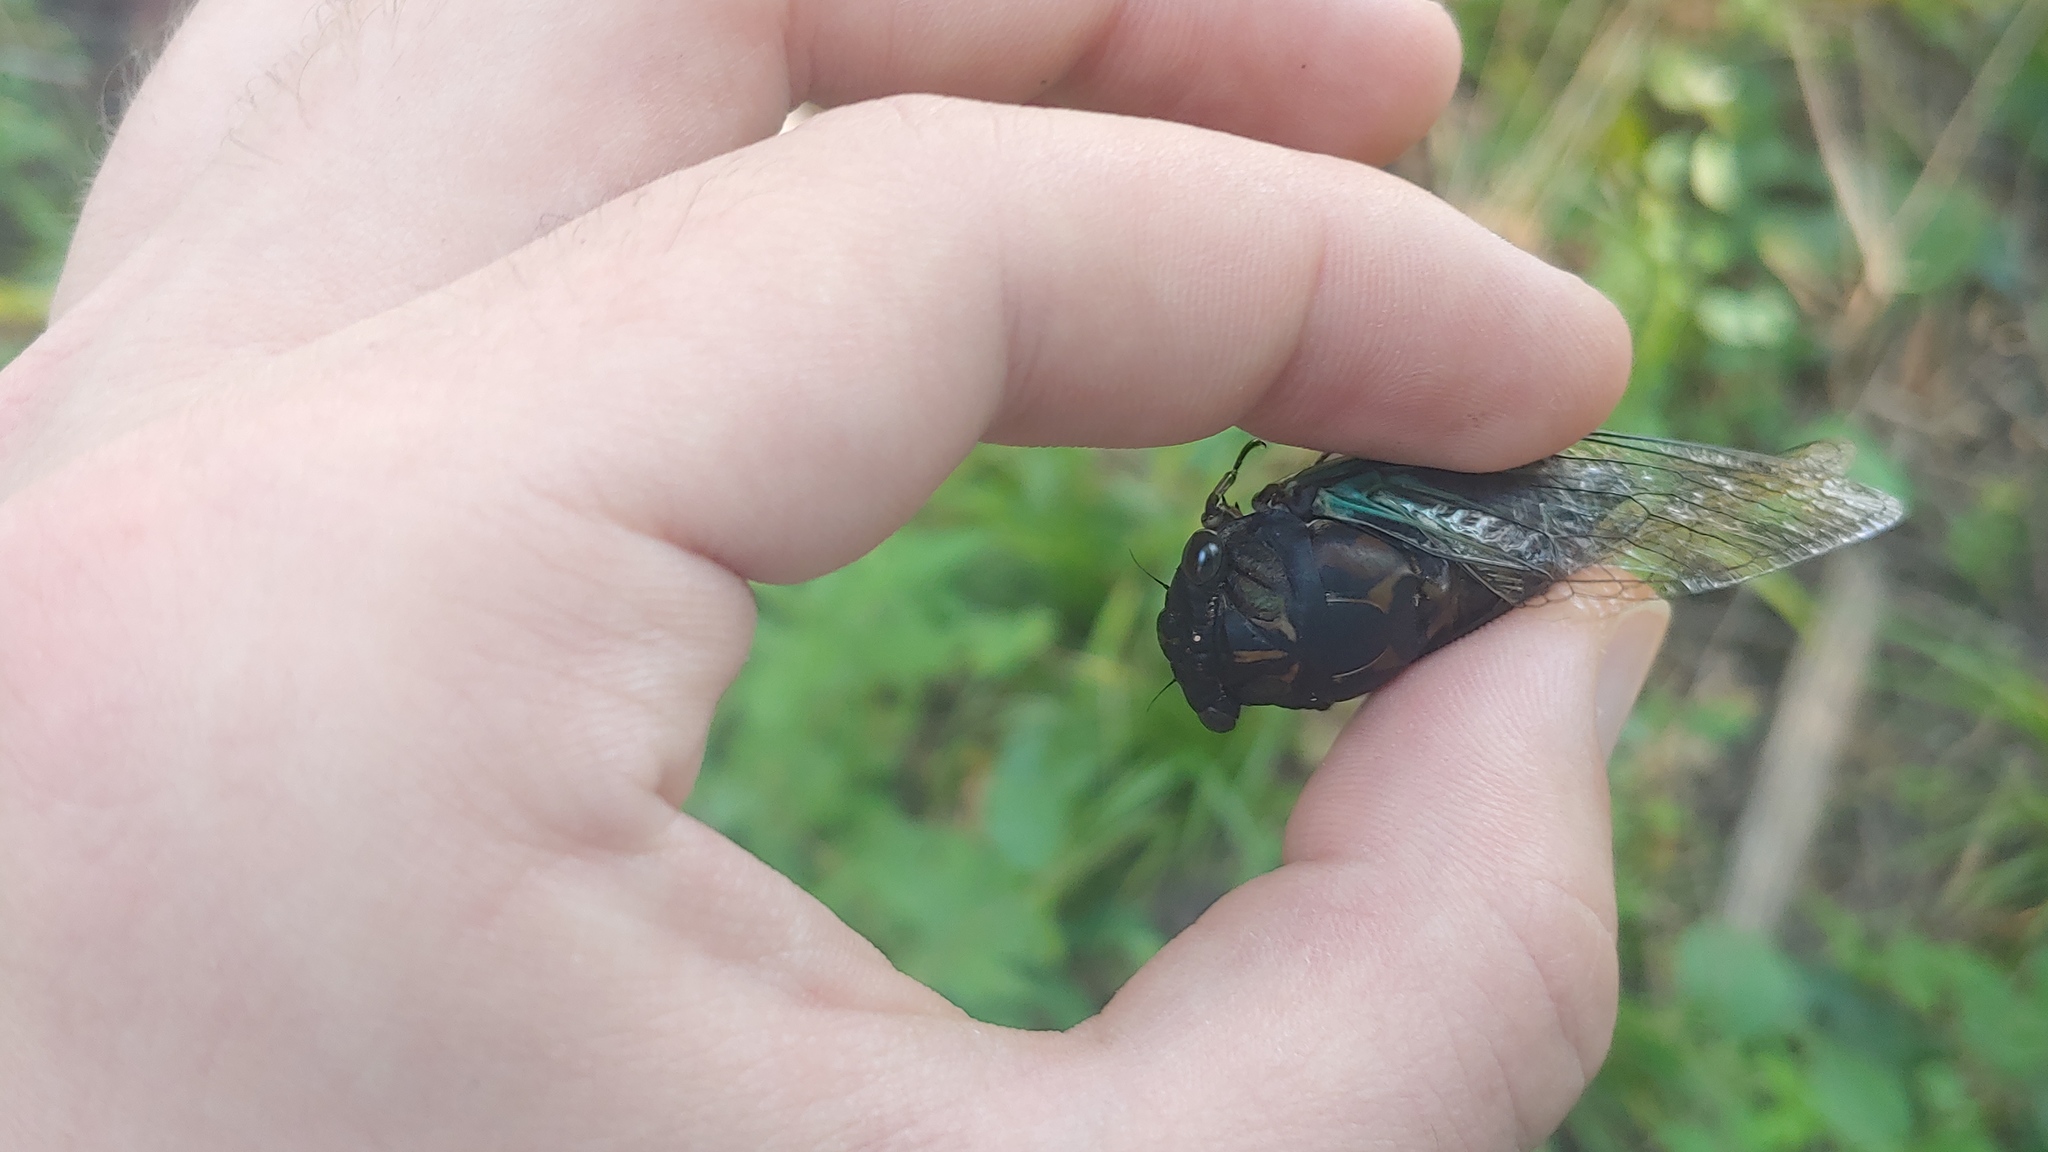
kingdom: Animalia
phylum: Arthropoda
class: Insecta
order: Hemiptera
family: Cicadidae
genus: Neotibicen
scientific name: Neotibicen lyricen
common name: Lyric cicada
